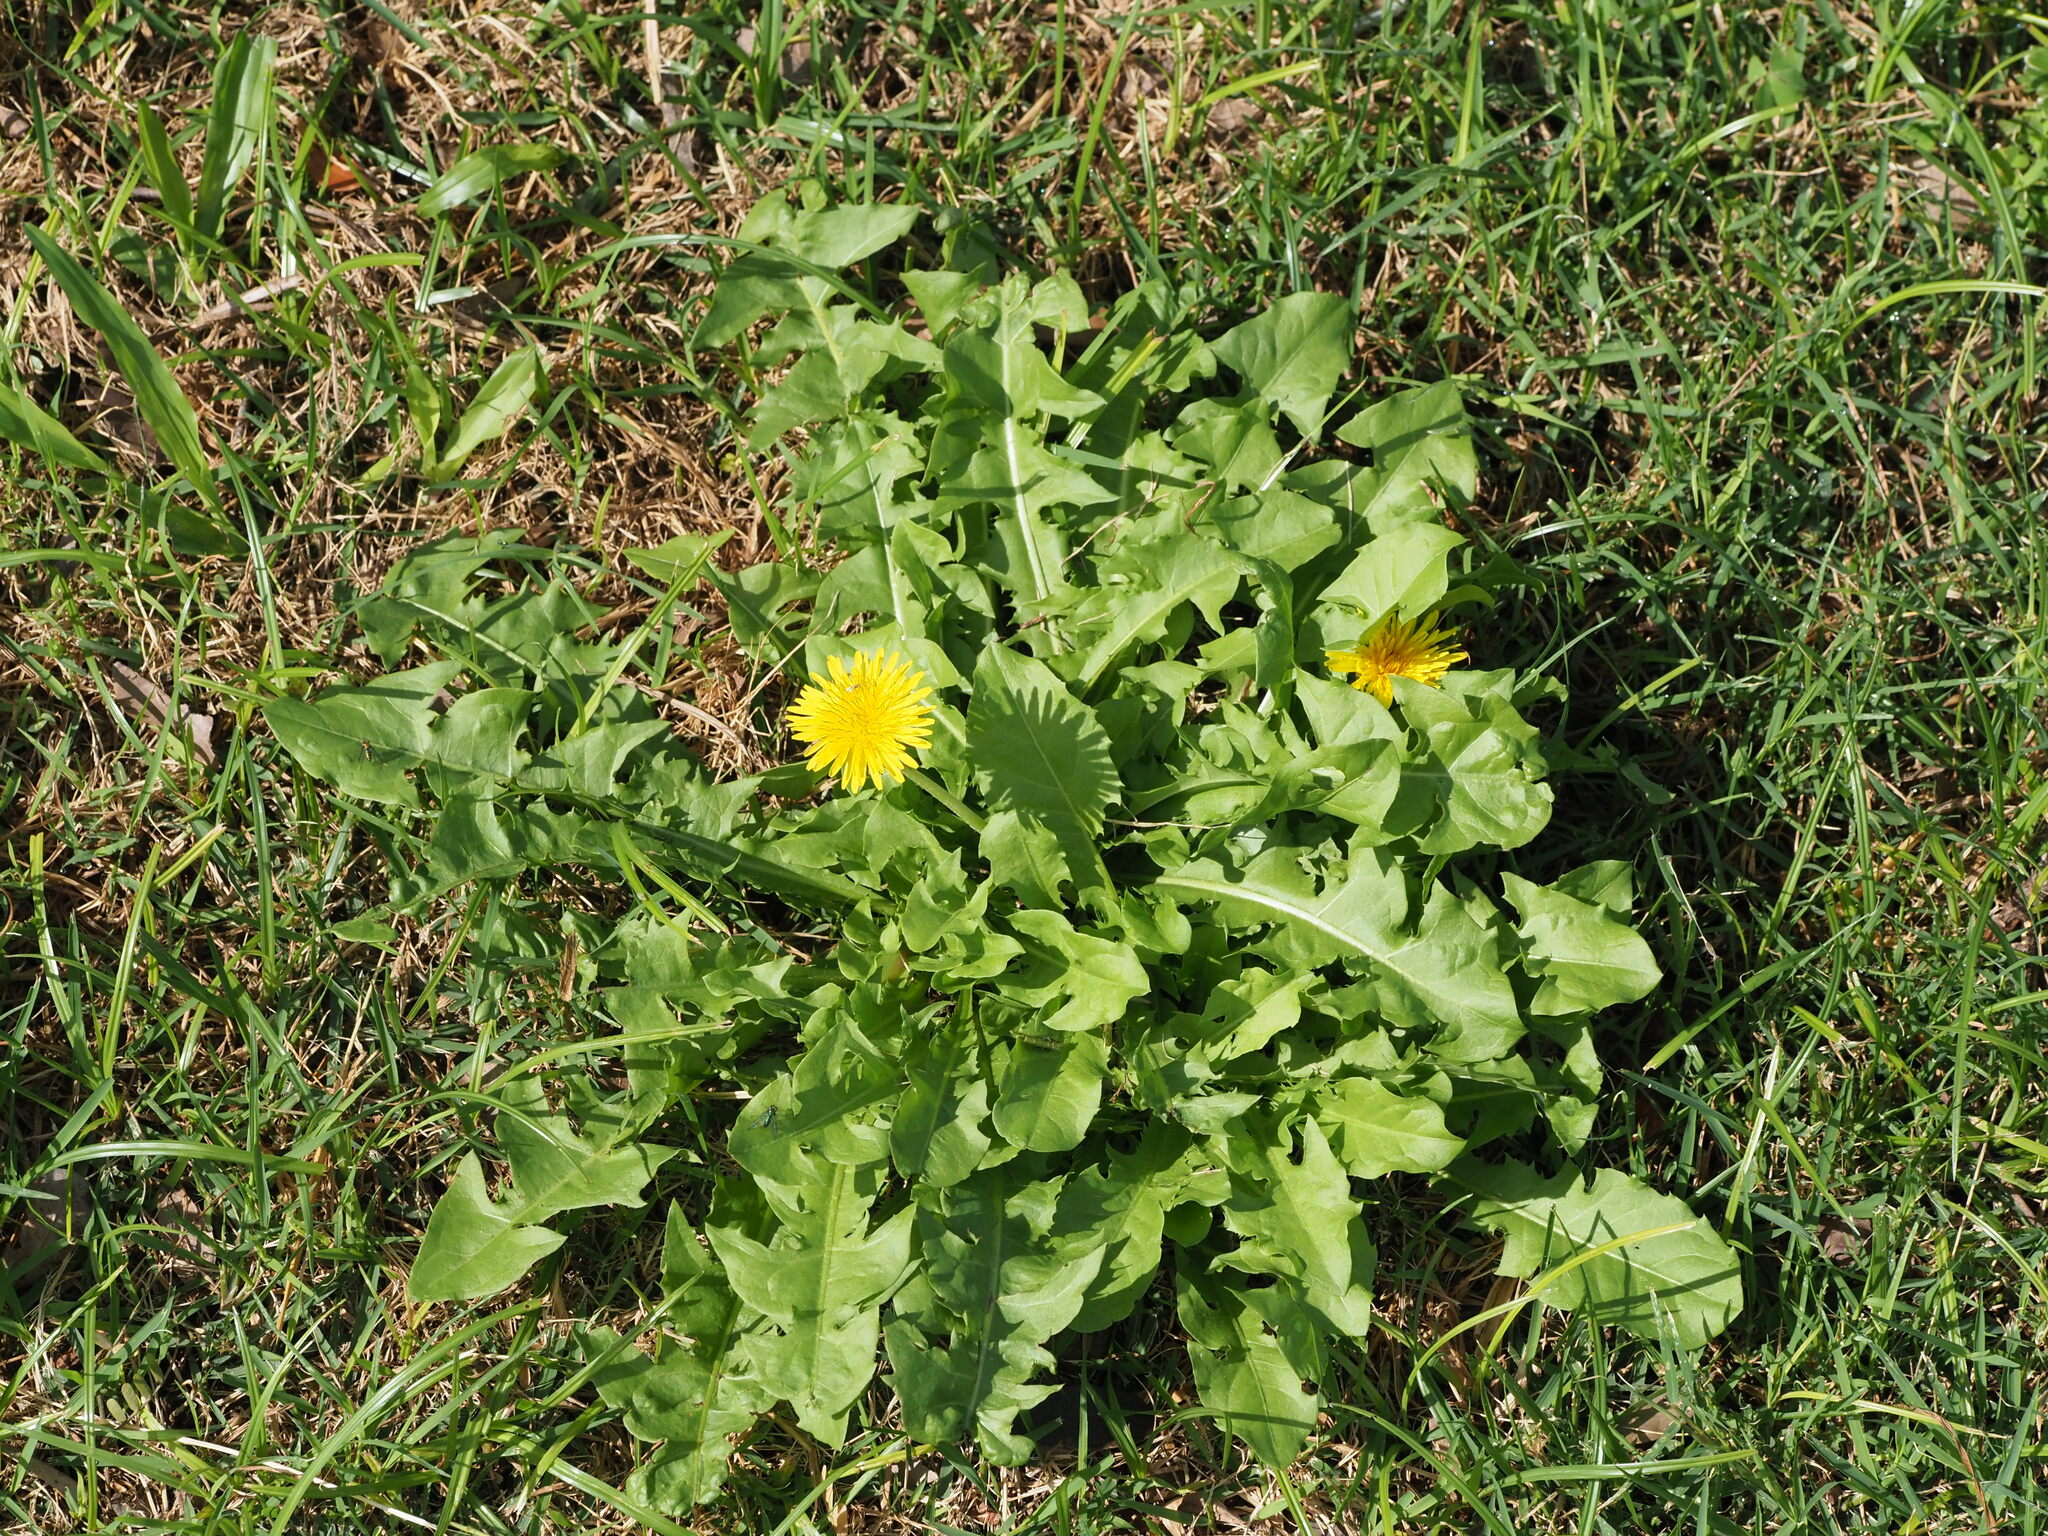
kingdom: Plantae
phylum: Tracheophyta
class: Magnoliopsida
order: Asterales
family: Asteraceae
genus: Taraxacum
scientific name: Taraxacum officinale
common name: Common dandelion
